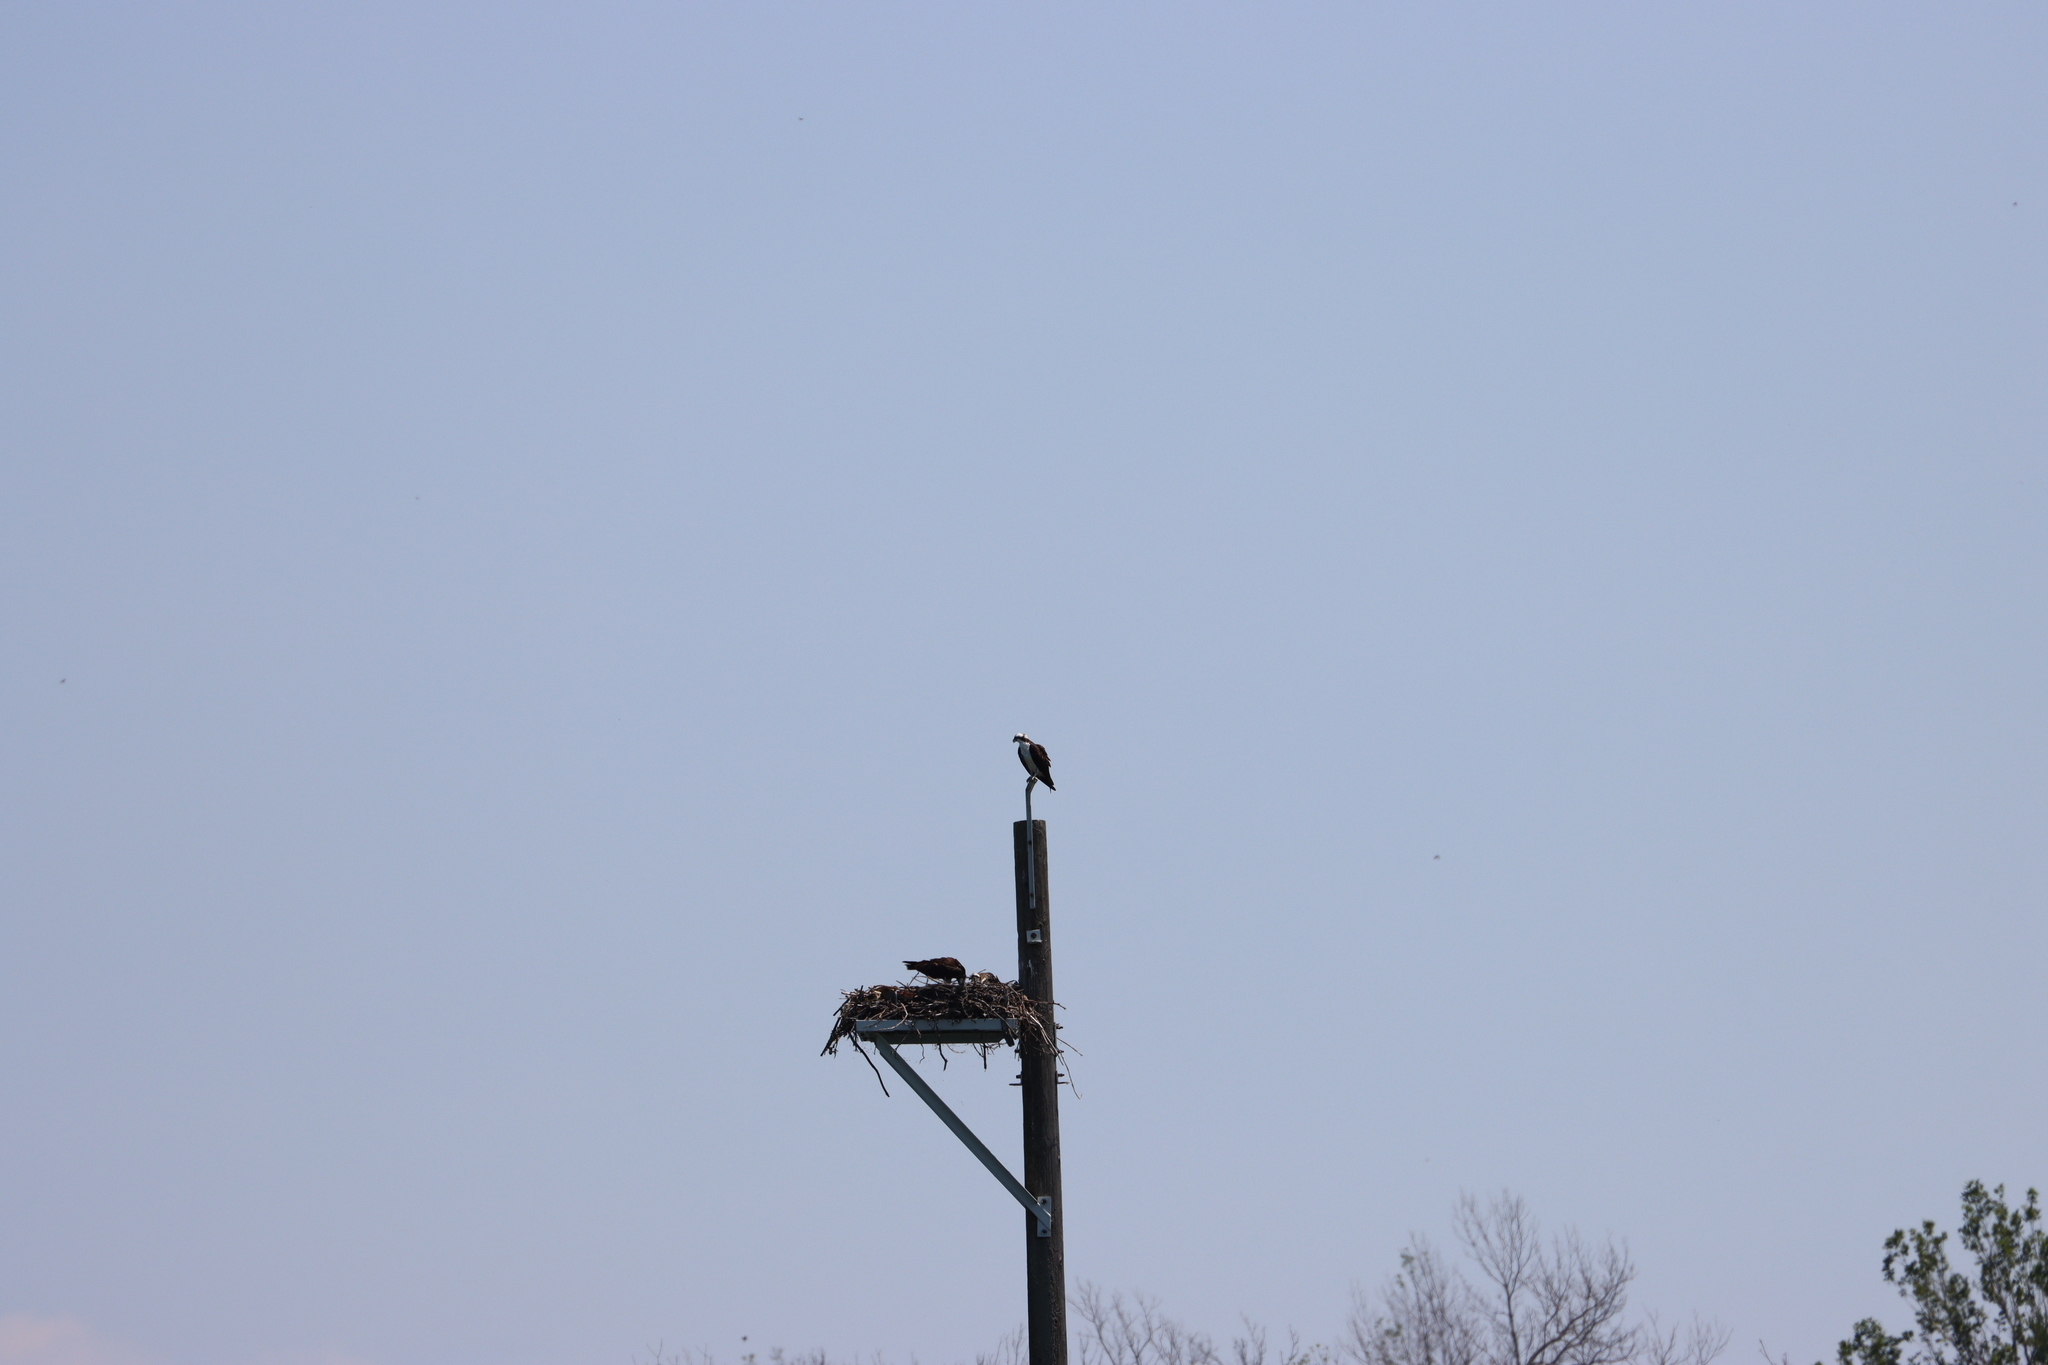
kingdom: Animalia
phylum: Chordata
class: Aves
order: Accipitriformes
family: Pandionidae
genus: Pandion
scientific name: Pandion haliaetus
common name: Osprey
